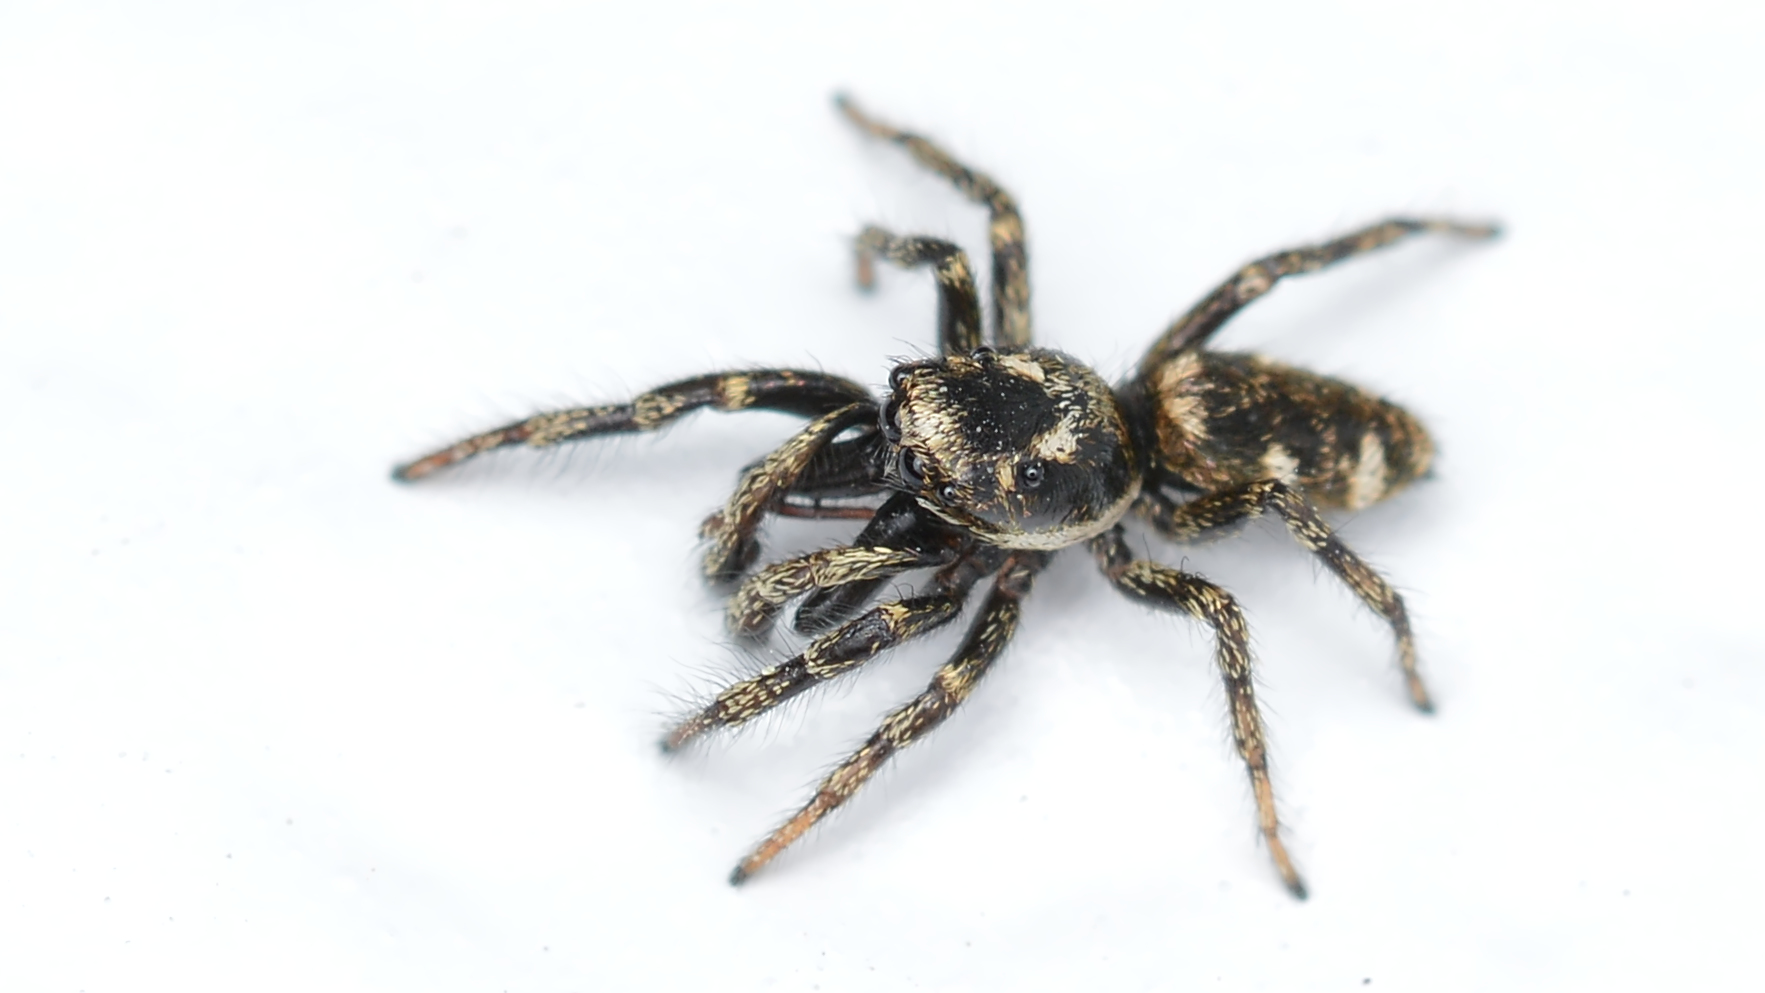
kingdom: Animalia
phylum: Arthropoda
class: Arachnida
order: Araneae
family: Salticidae
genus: Salticus
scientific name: Salticus scenicus
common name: Zebra jumper
